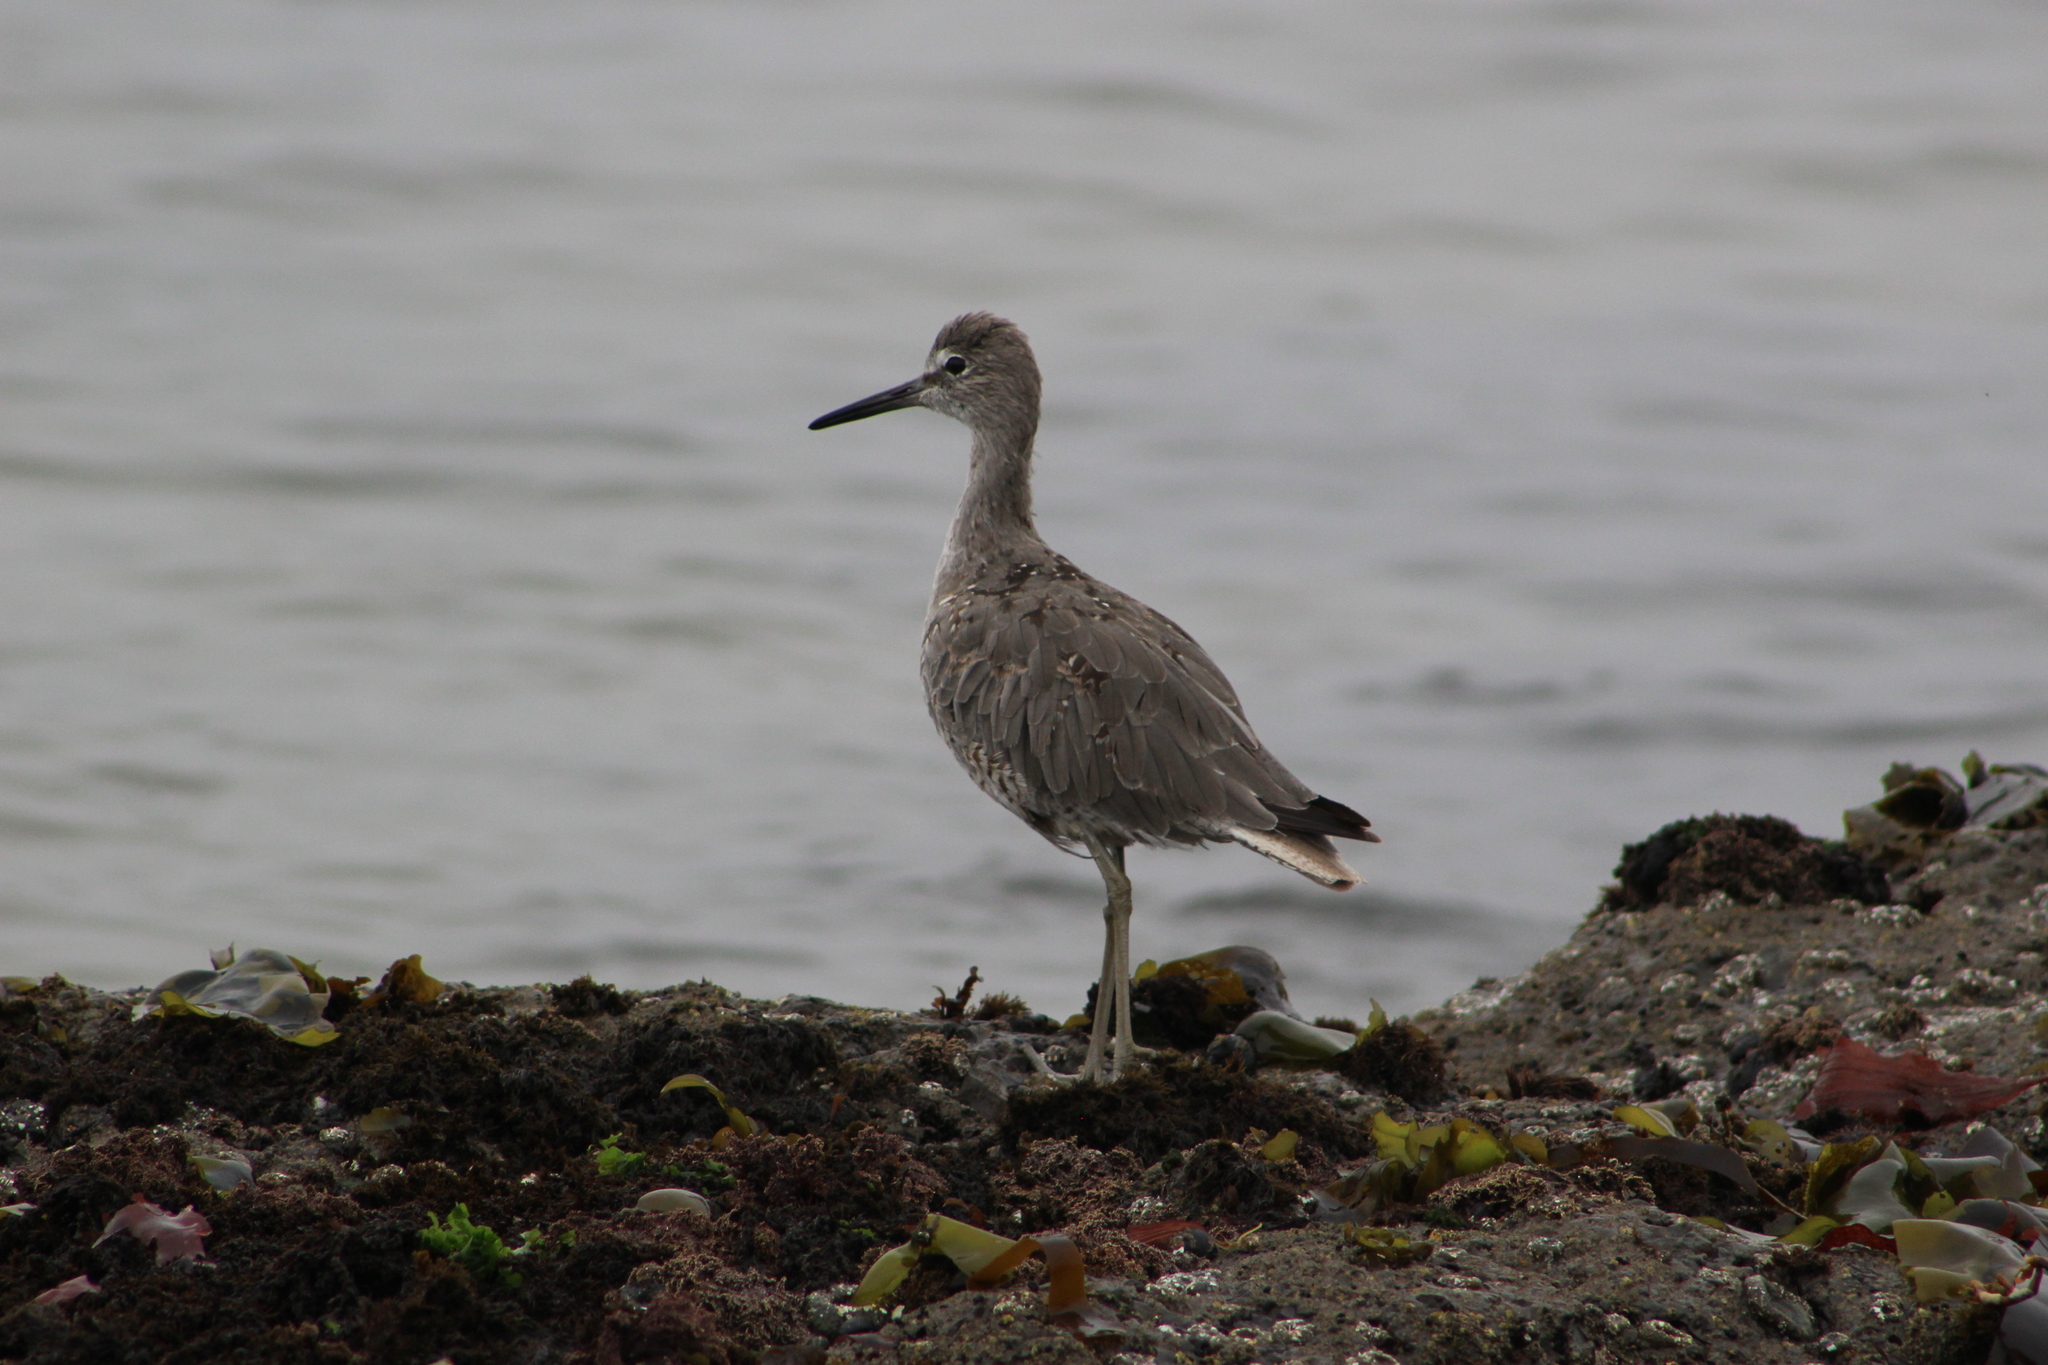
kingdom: Animalia
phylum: Chordata
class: Aves
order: Charadriiformes
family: Scolopacidae
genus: Tringa
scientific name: Tringa semipalmata
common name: Willet
